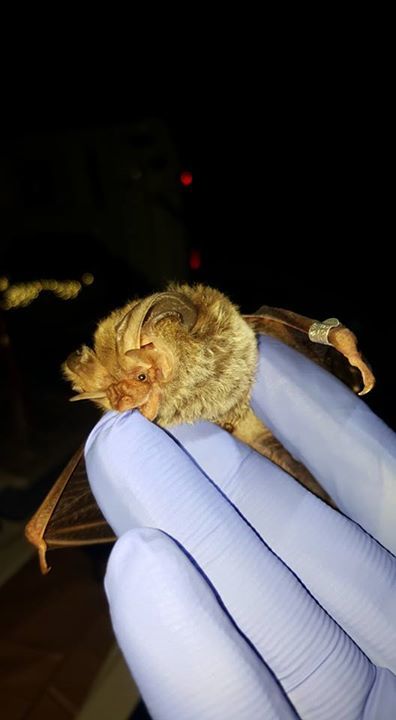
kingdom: Animalia
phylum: Chordata
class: Mammalia
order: Chiroptera
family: Vespertilionidae
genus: Corynorhinus
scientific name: Corynorhinus rafinesquii
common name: Rafinesque's big-eared bat
